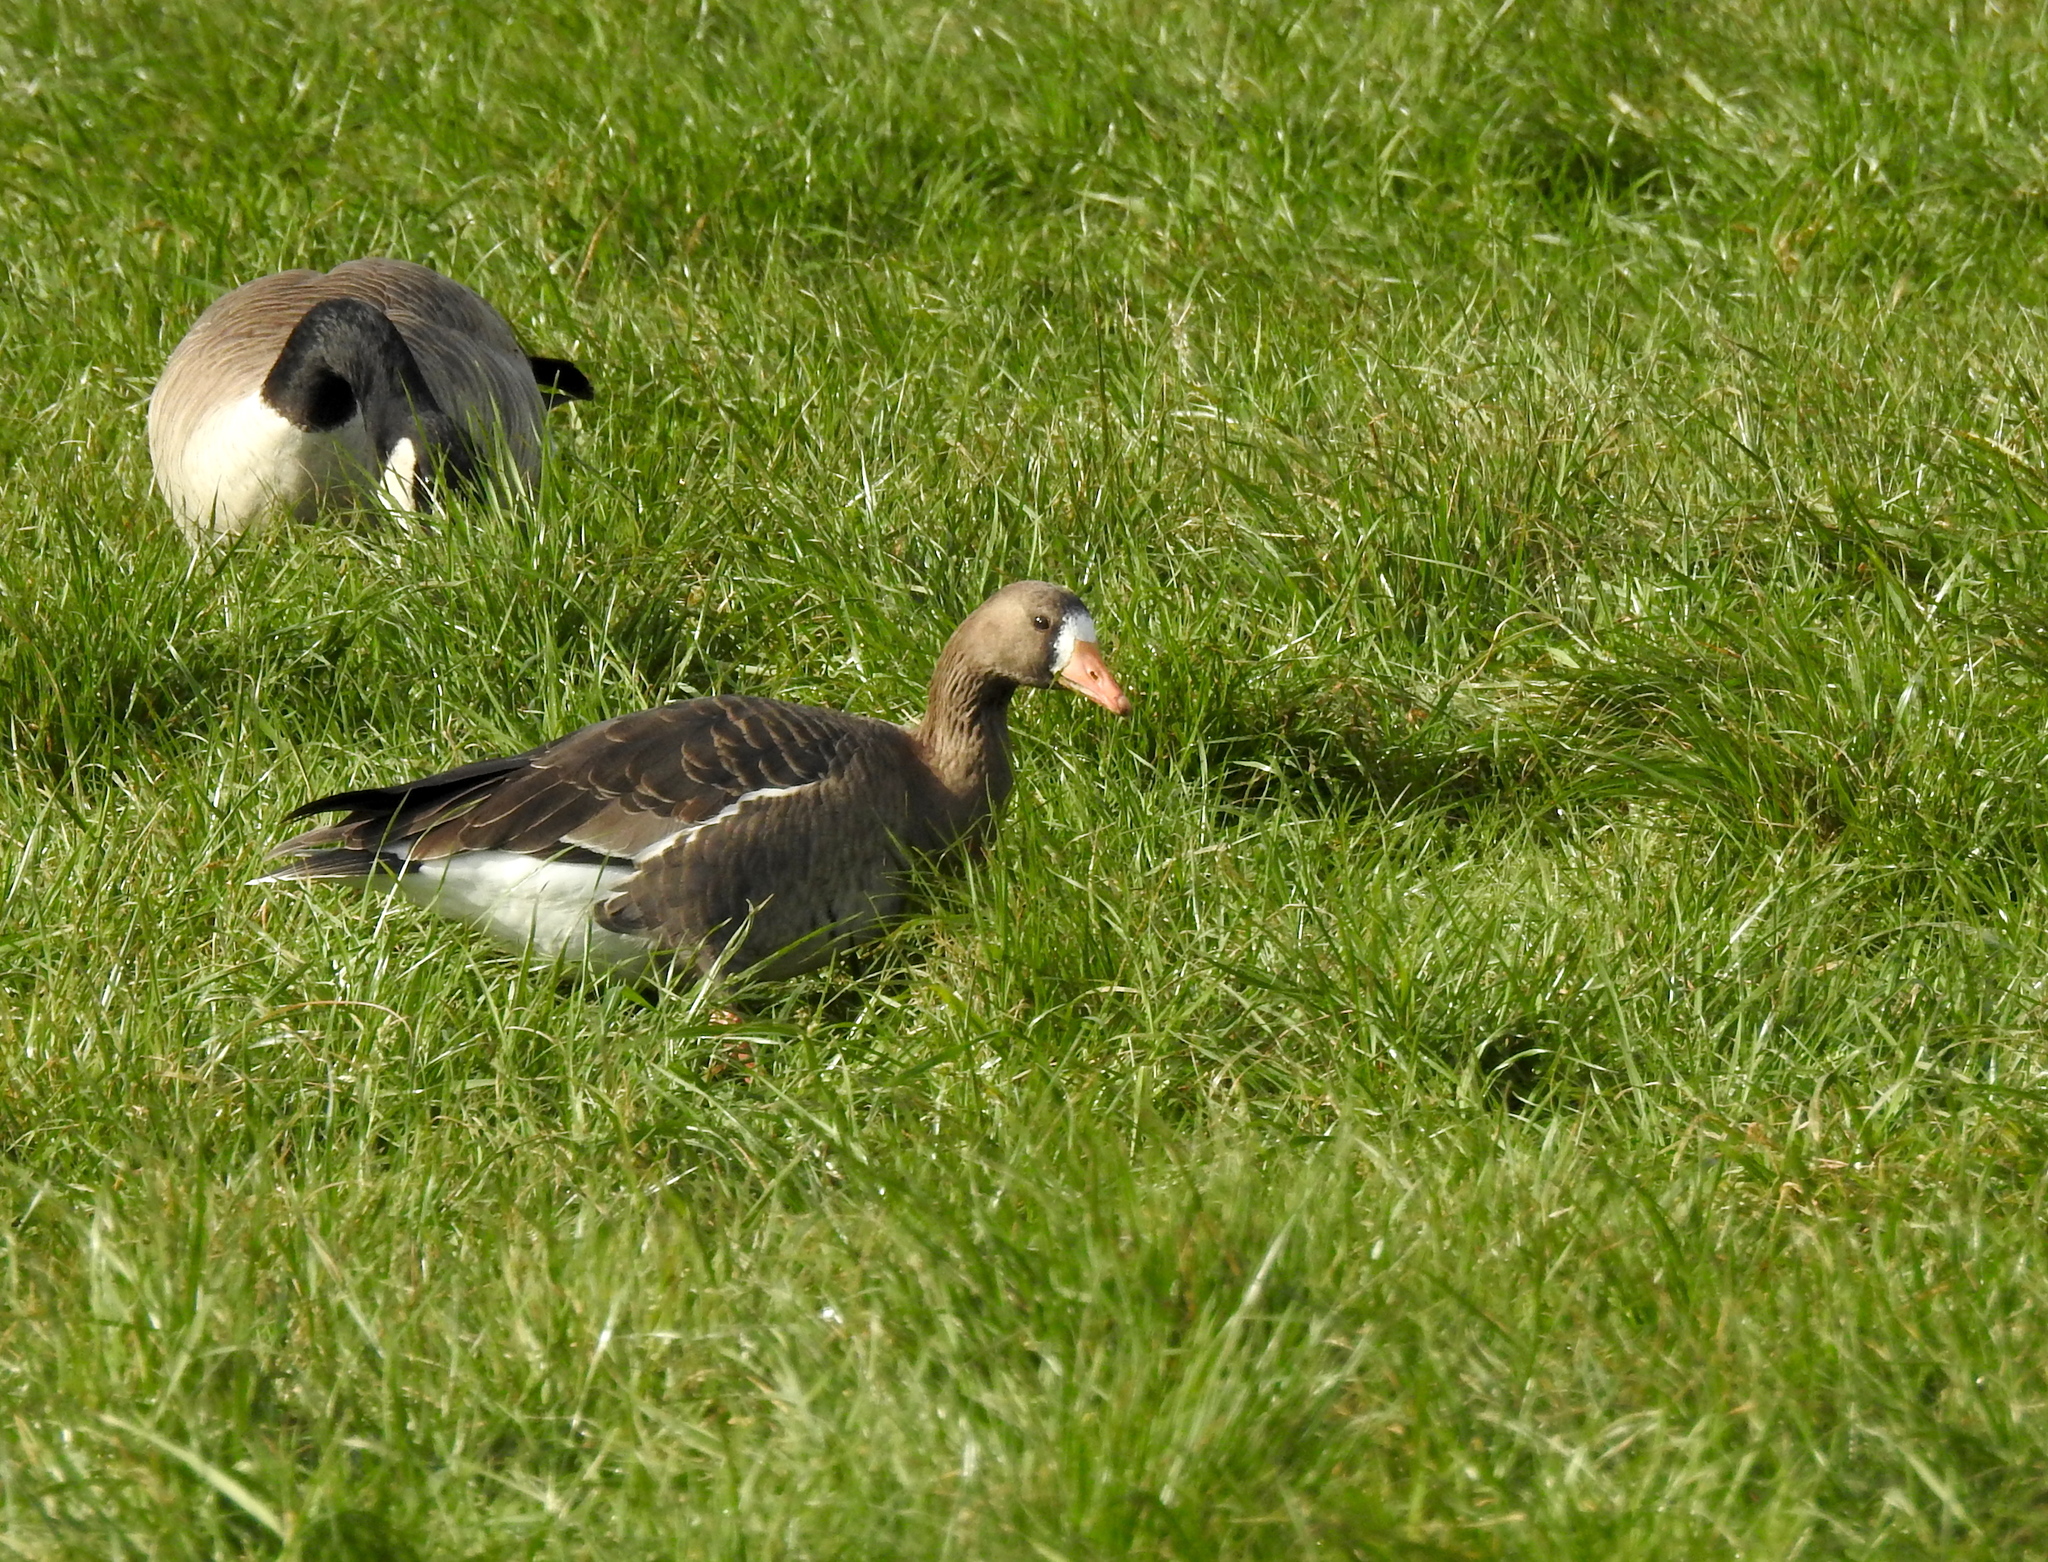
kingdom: Animalia
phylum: Chordata
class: Aves
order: Anseriformes
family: Anatidae
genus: Anser
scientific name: Anser albifrons
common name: Greater white-fronted goose
